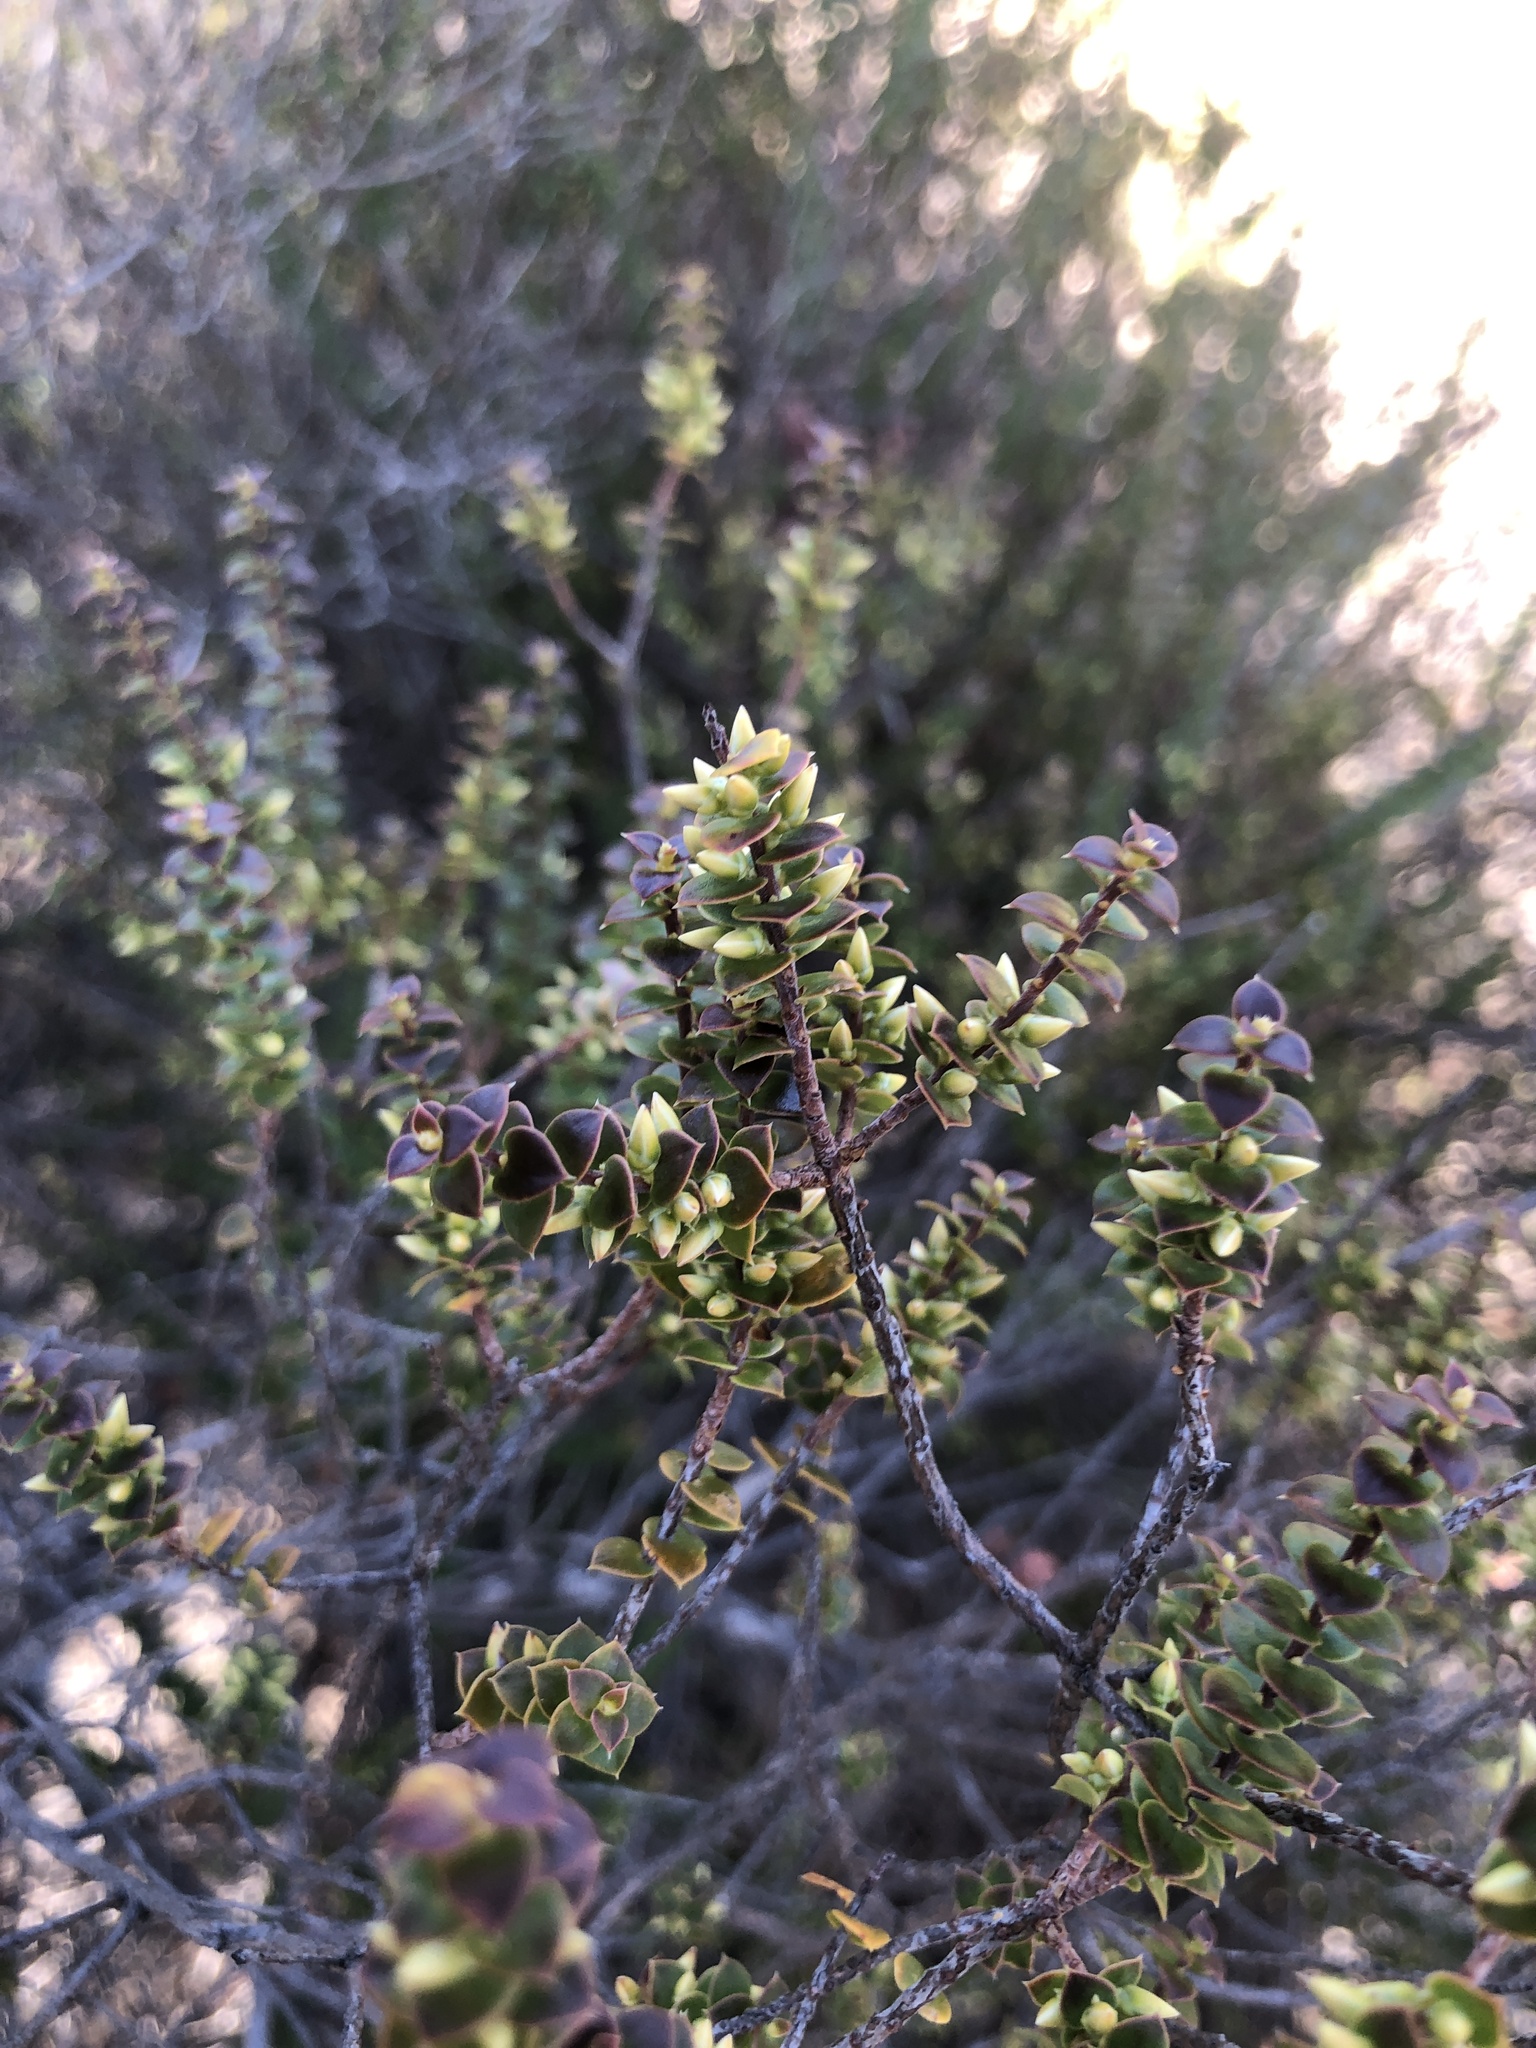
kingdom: Plantae
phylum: Tracheophyta
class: Magnoliopsida
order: Ericales
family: Ericaceae
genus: Styphelia
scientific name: Styphelia cordifolia
